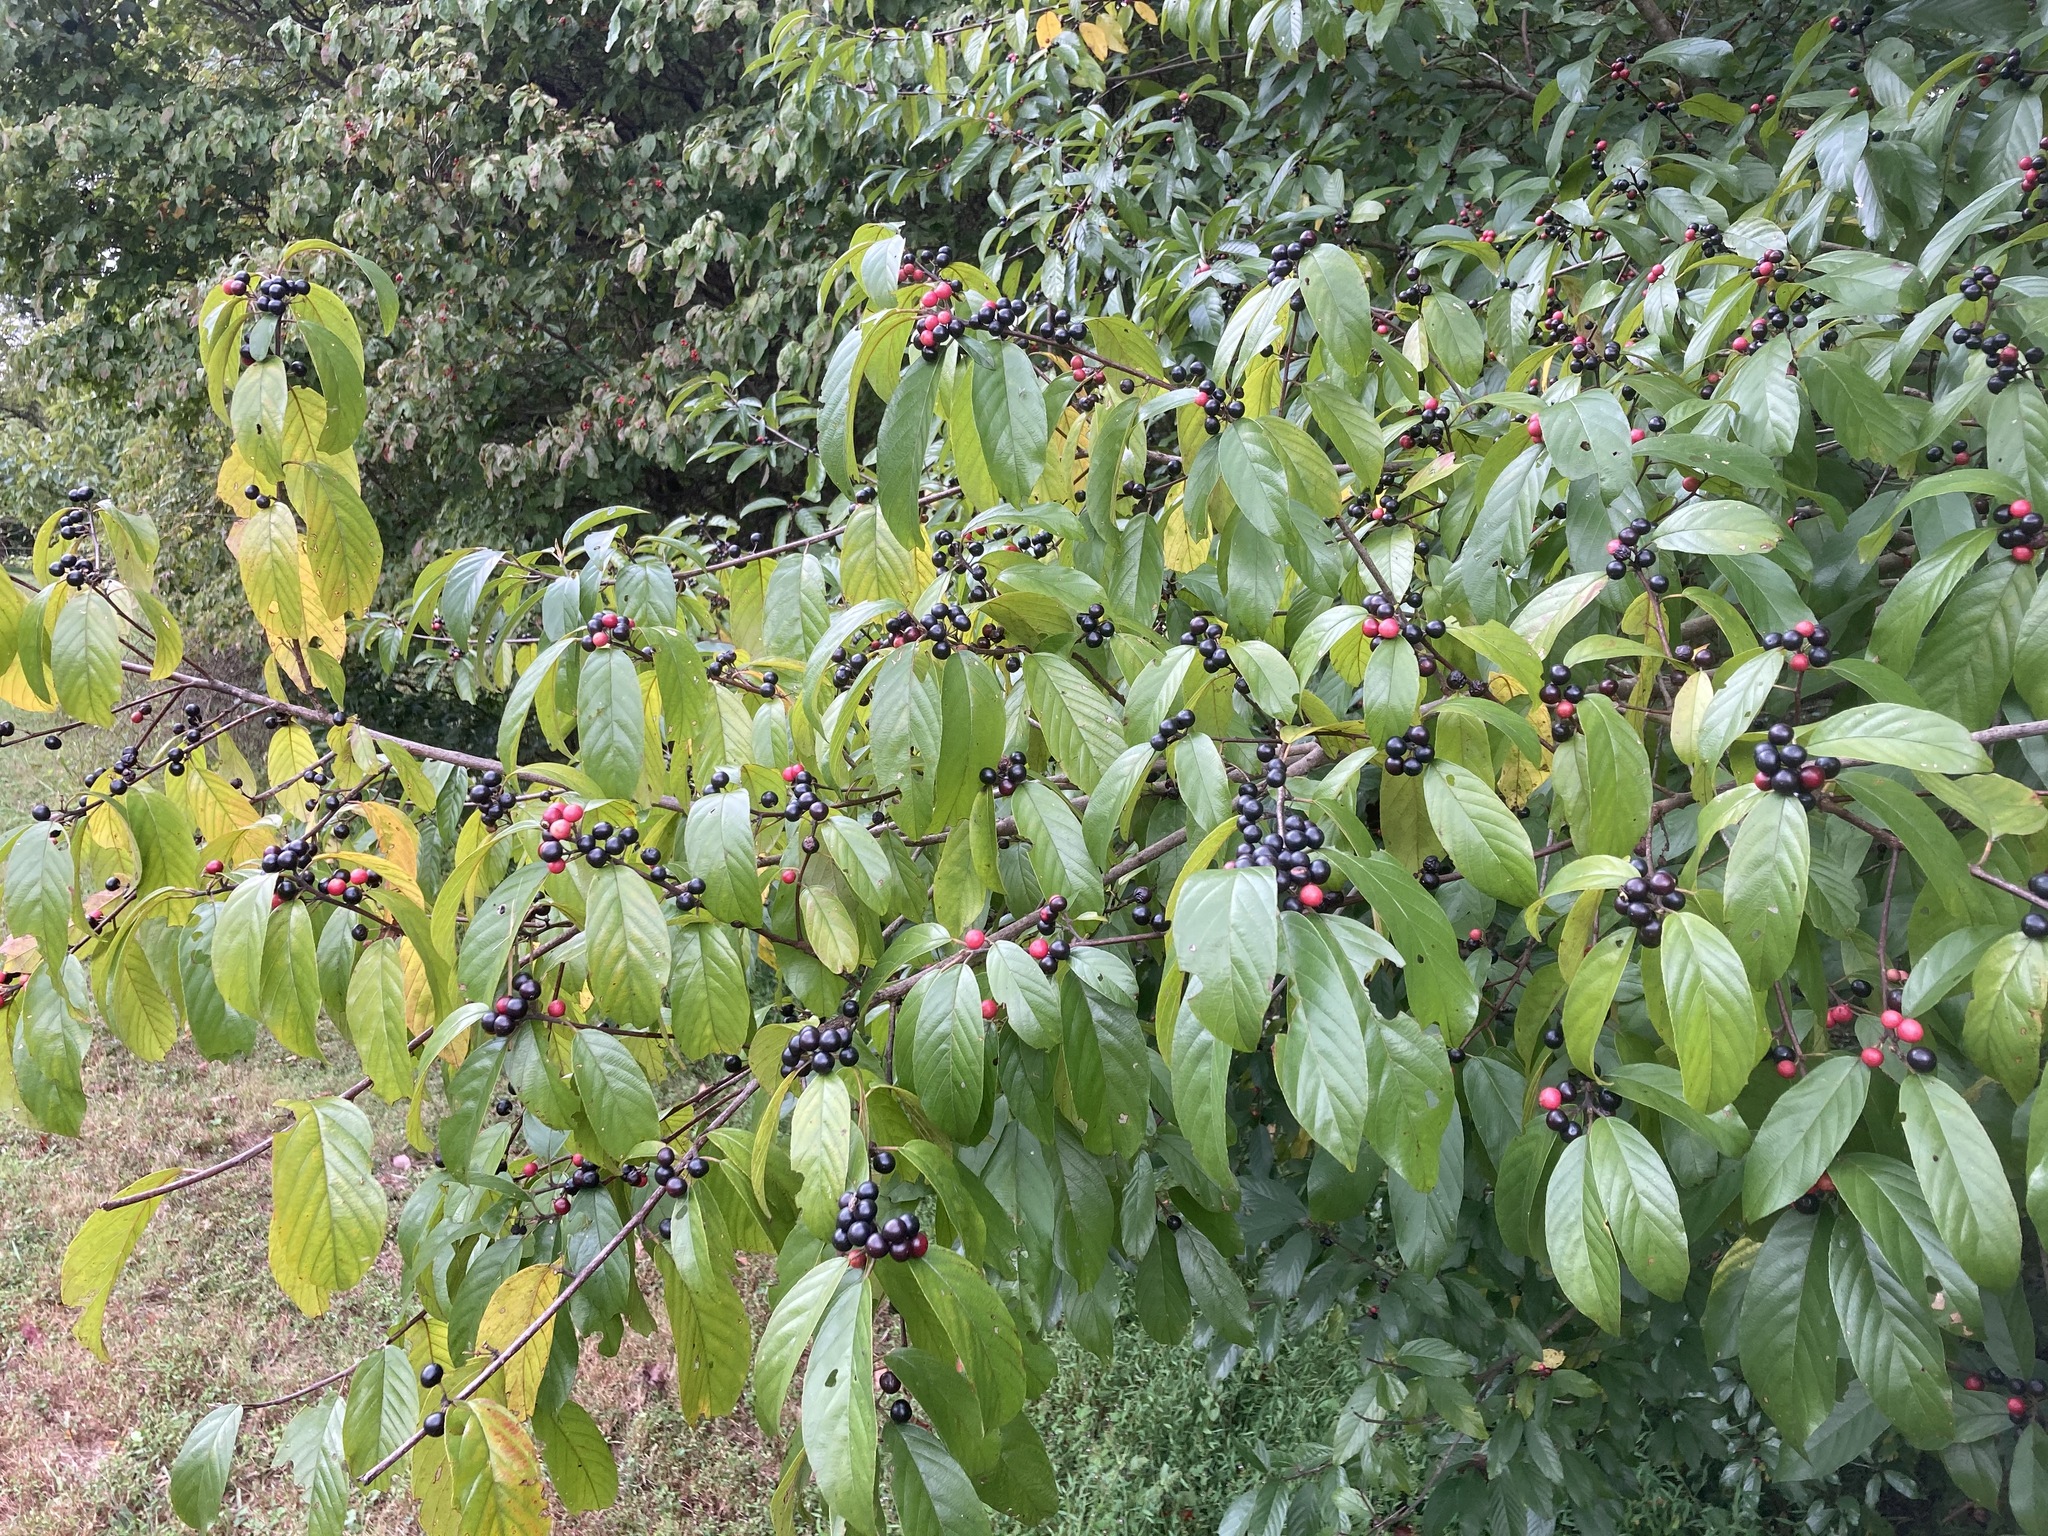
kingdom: Plantae
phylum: Tracheophyta
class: Magnoliopsida
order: Rosales
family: Rhamnaceae
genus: Frangula
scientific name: Frangula caroliniana
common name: Carolina buckthorn
